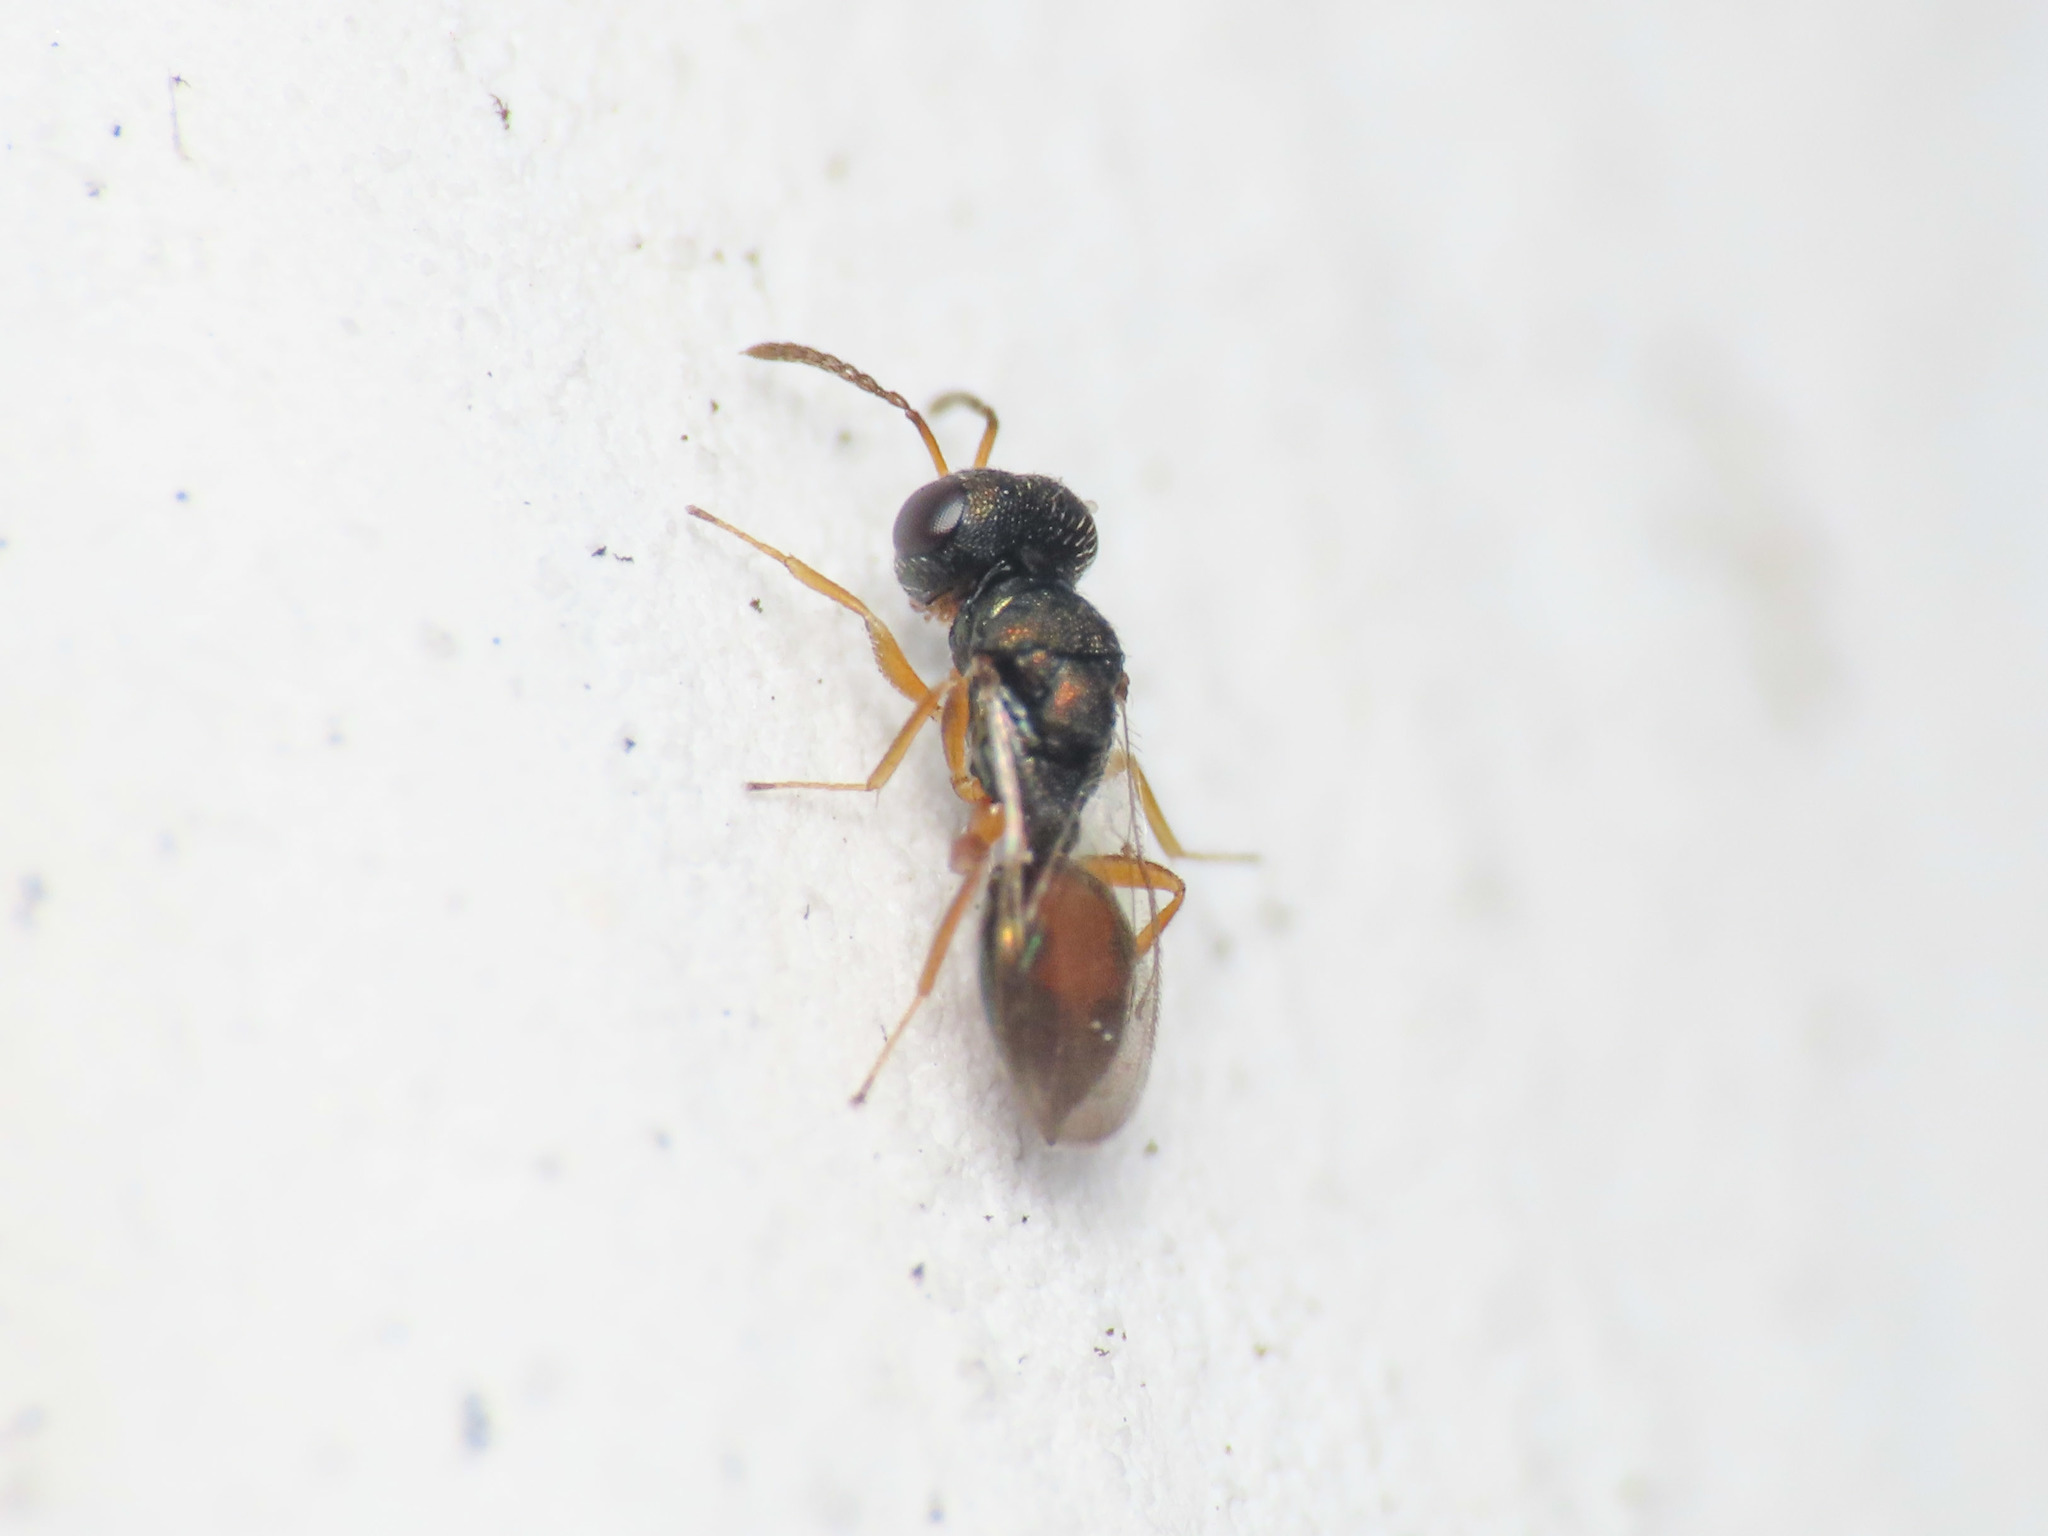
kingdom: Animalia
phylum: Arthropoda
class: Insecta
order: Hymenoptera
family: Pteromalidae
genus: Callitula
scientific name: Callitula bicolor
